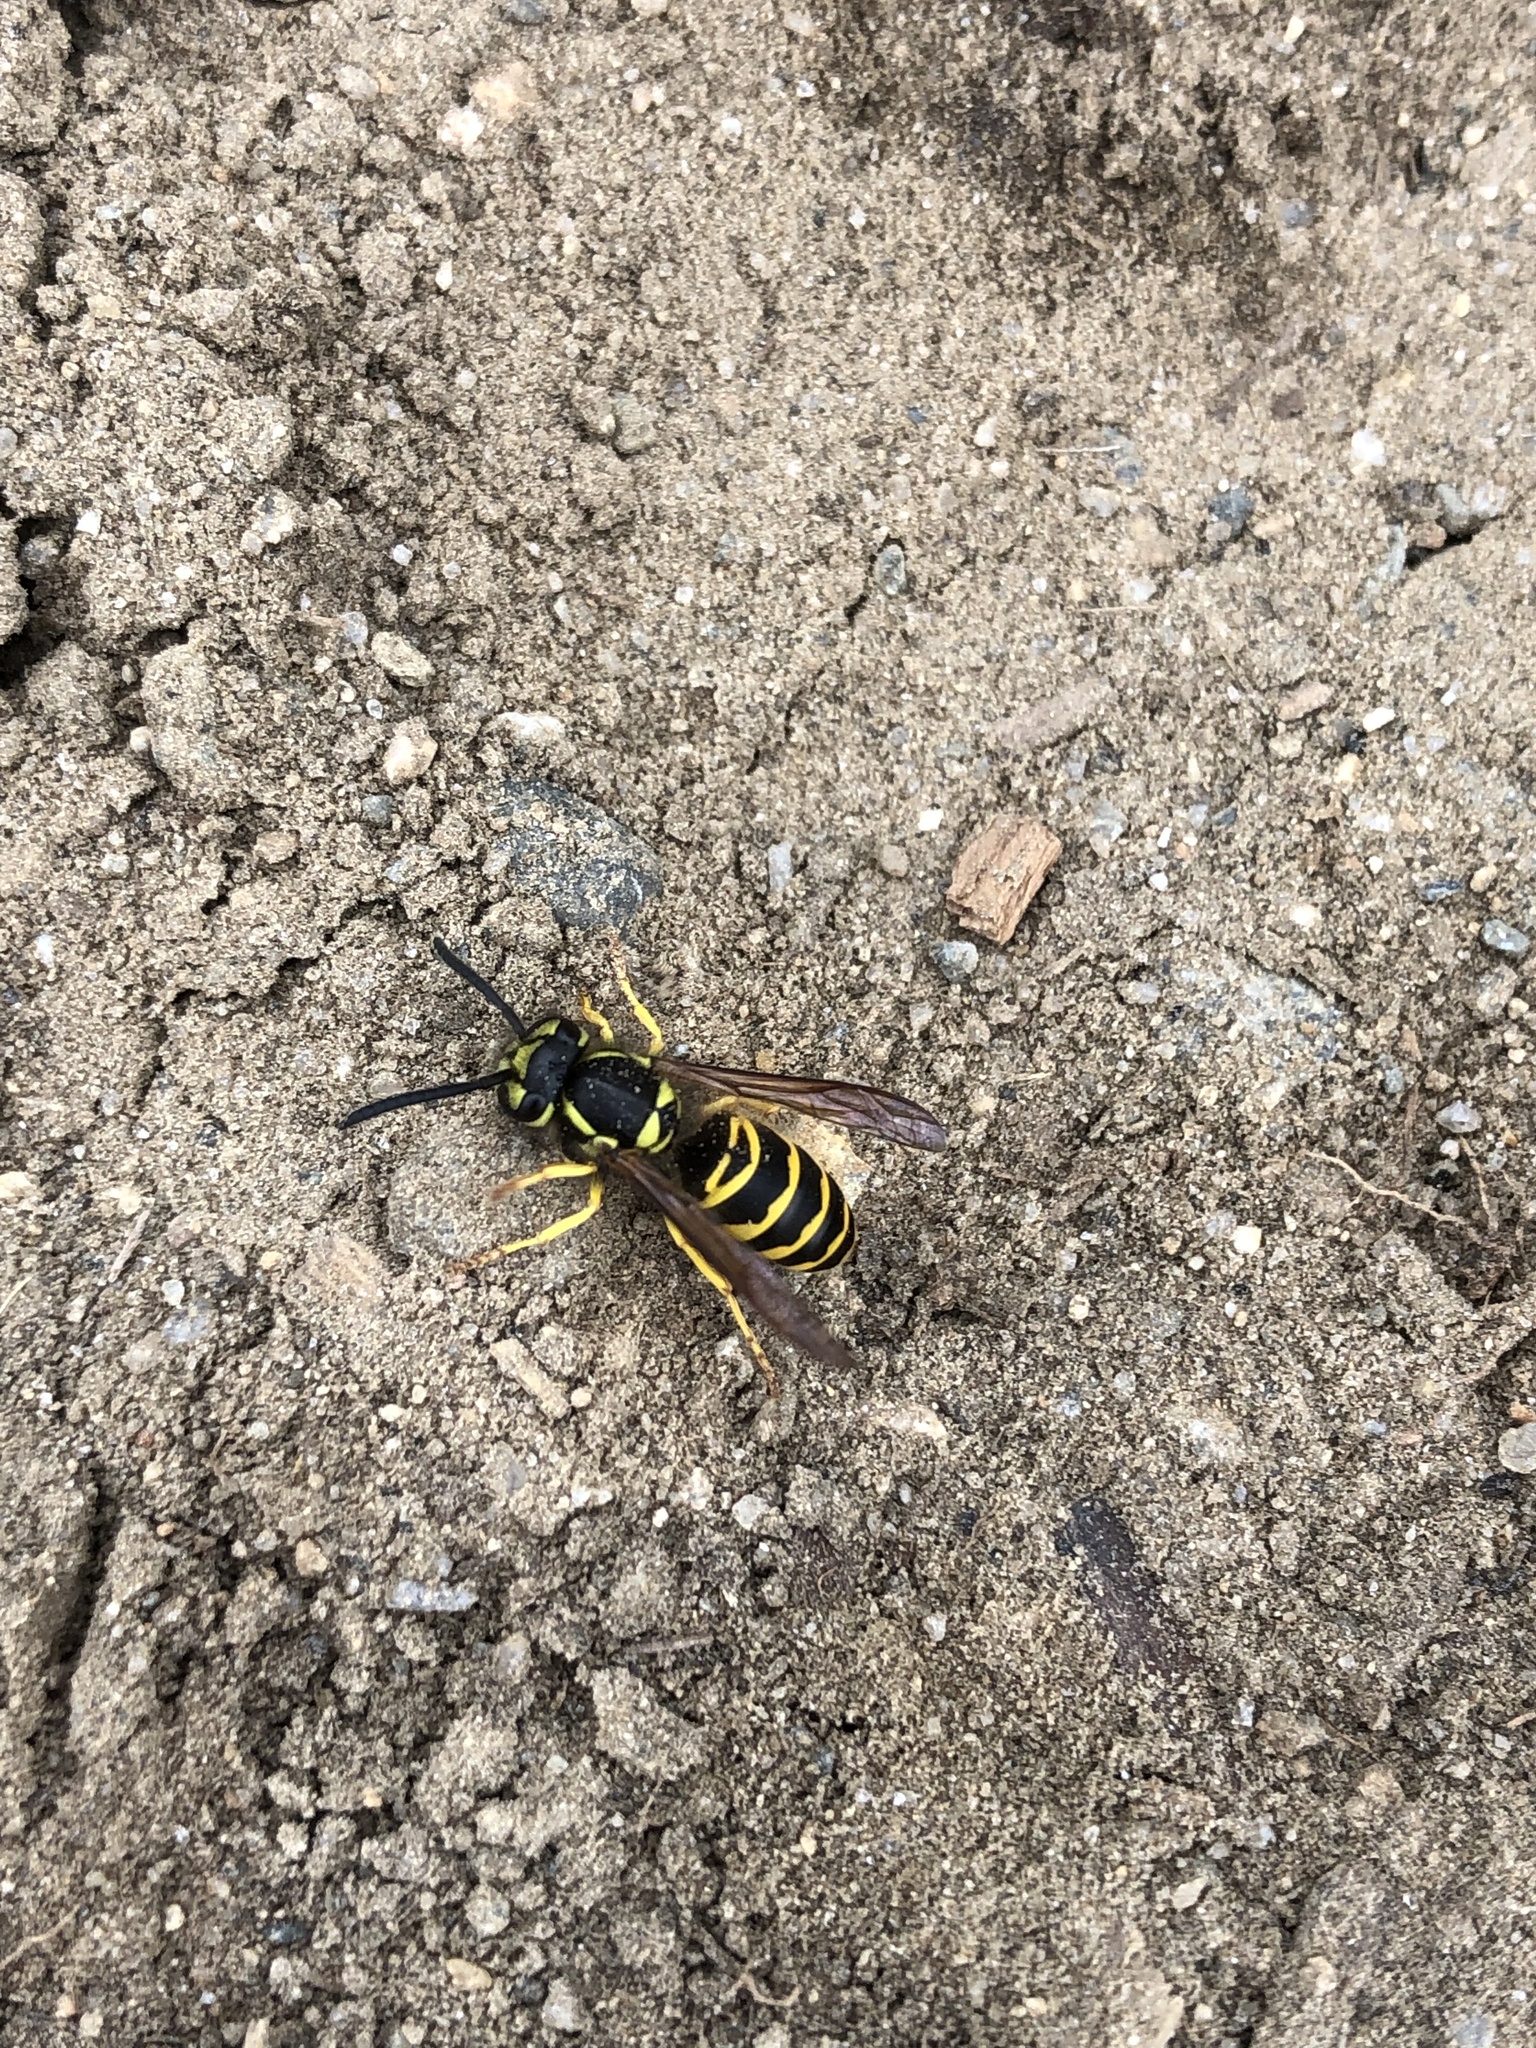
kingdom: Animalia
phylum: Arthropoda
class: Insecta
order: Hymenoptera
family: Vespidae
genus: Vespula
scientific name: Vespula maculifrons
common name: Eastern yellowjacket
